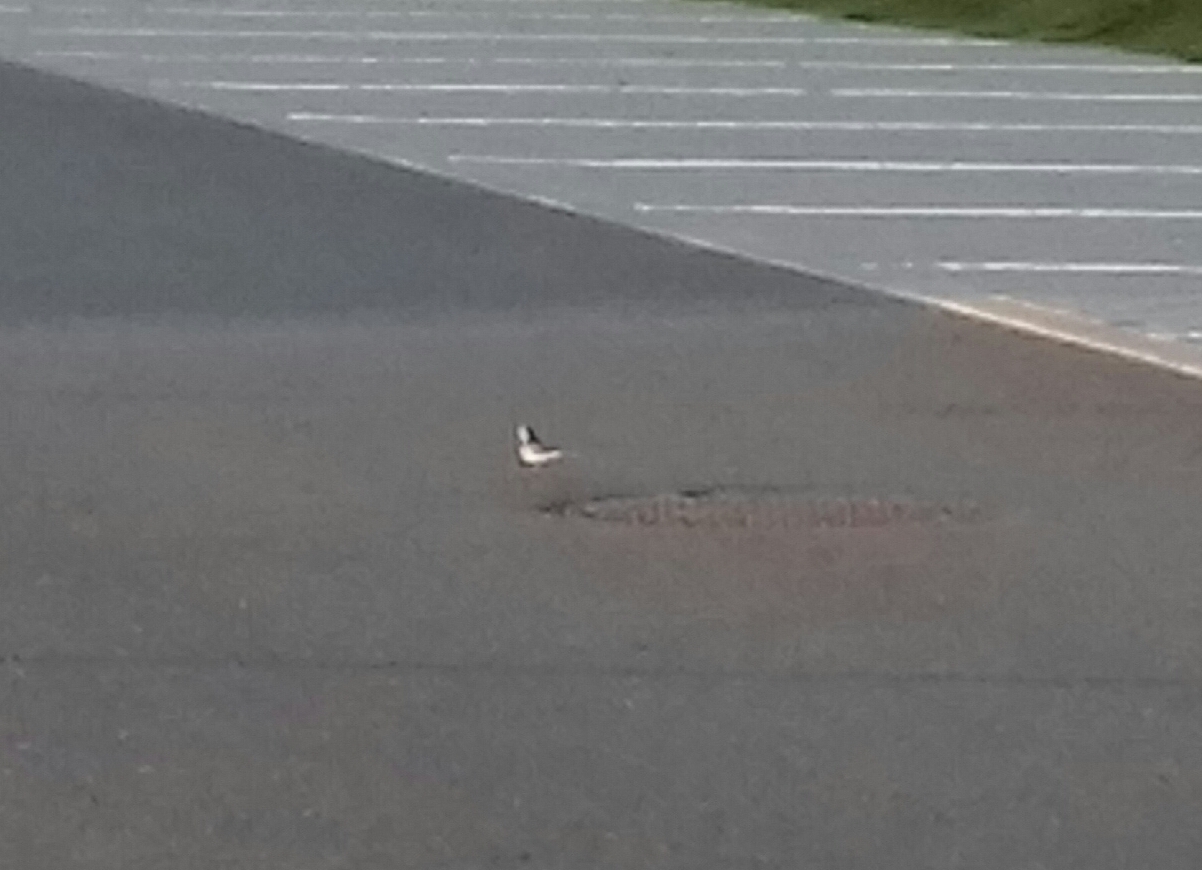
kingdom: Animalia
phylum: Chordata
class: Aves
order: Passeriformes
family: Motacillidae
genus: Motacilla
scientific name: Motacilla alba
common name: White wagtail
